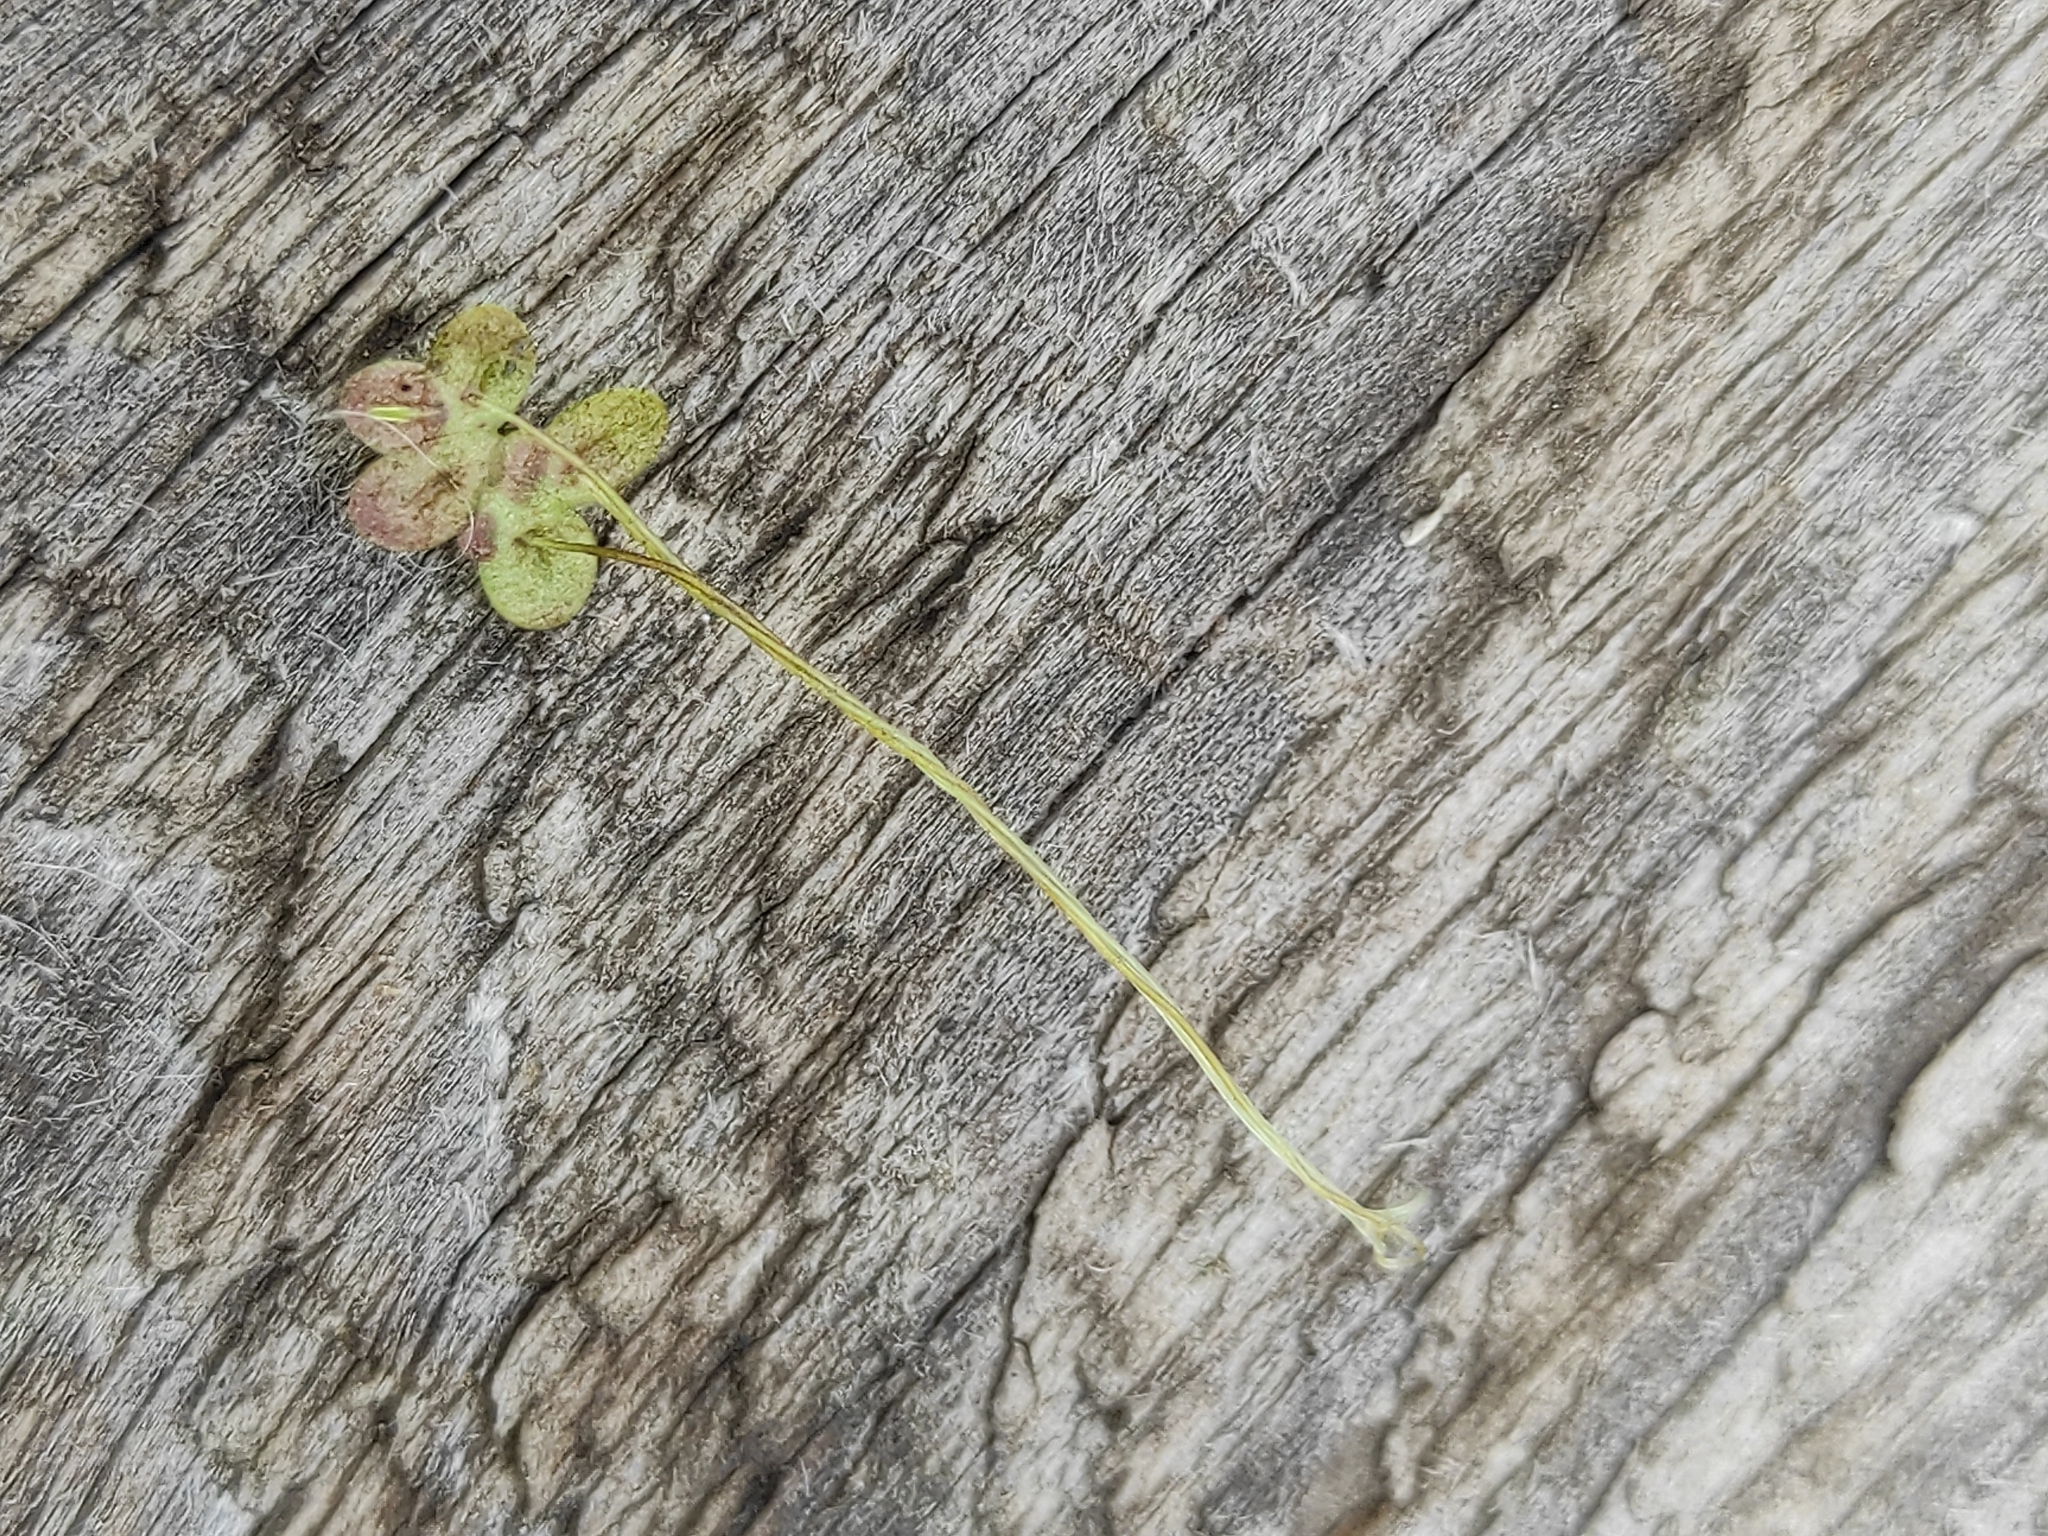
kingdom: Plantae
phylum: Tracheophyta
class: Liliopsida
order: Alismatales
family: Araceae
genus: Lemna
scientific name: Lemna minor
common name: Common duckweed
